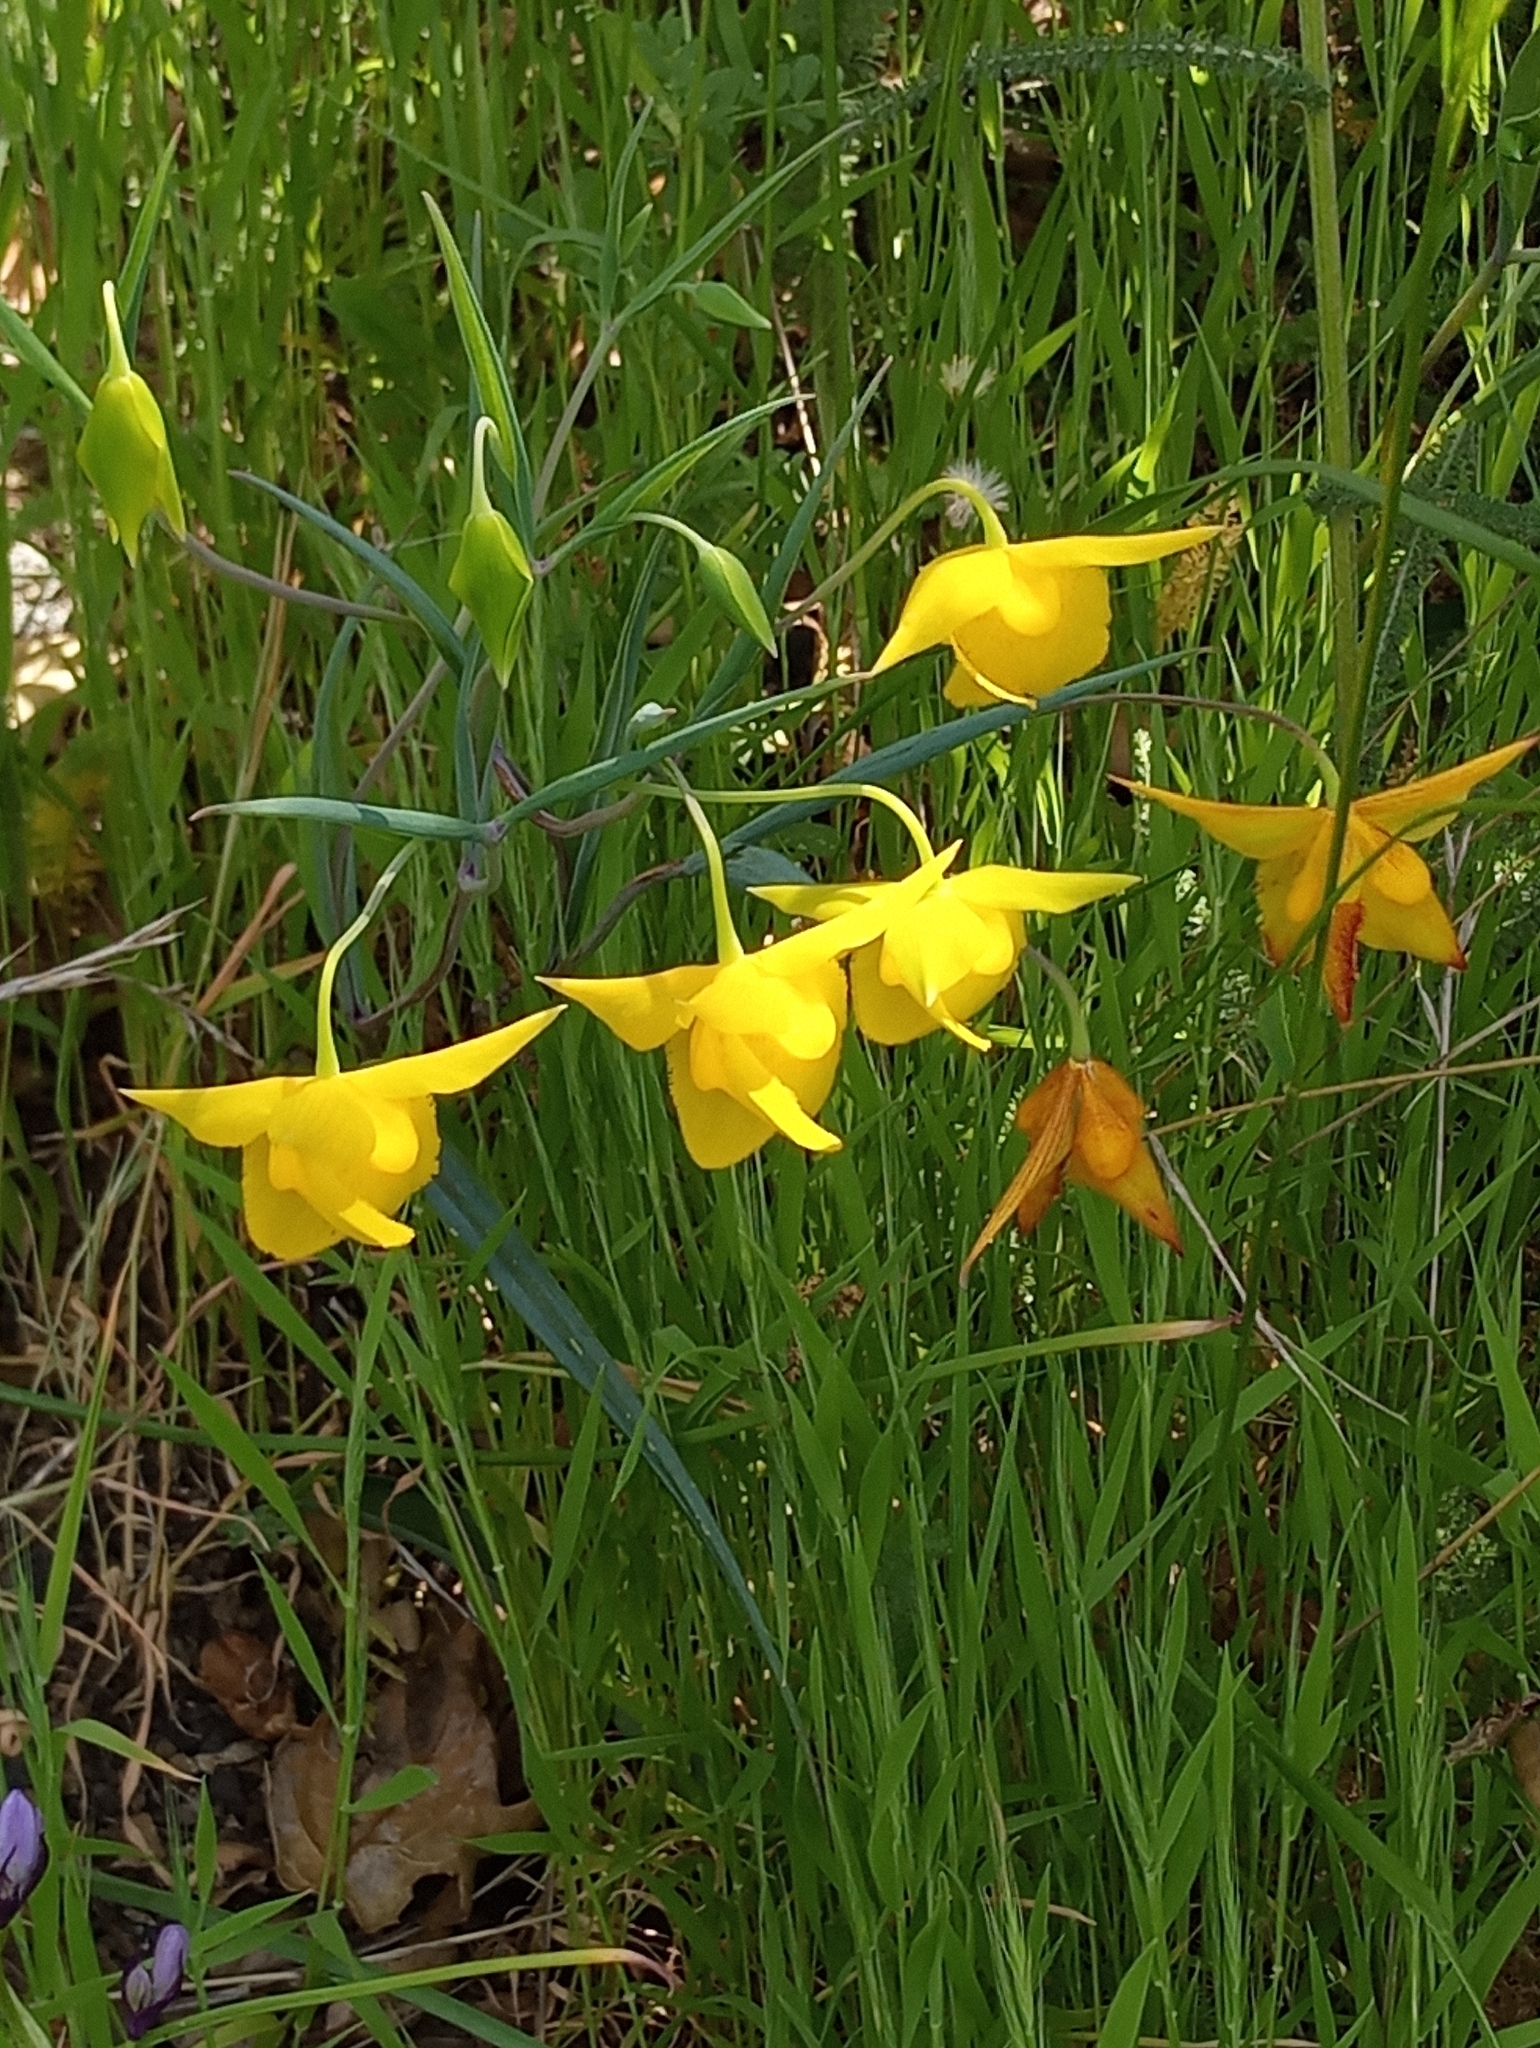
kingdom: Plantae
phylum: Tracheophyta
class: Liliopsida
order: Liliales
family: Liliaceae
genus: Calochortus
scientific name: Calochortus amabilis
